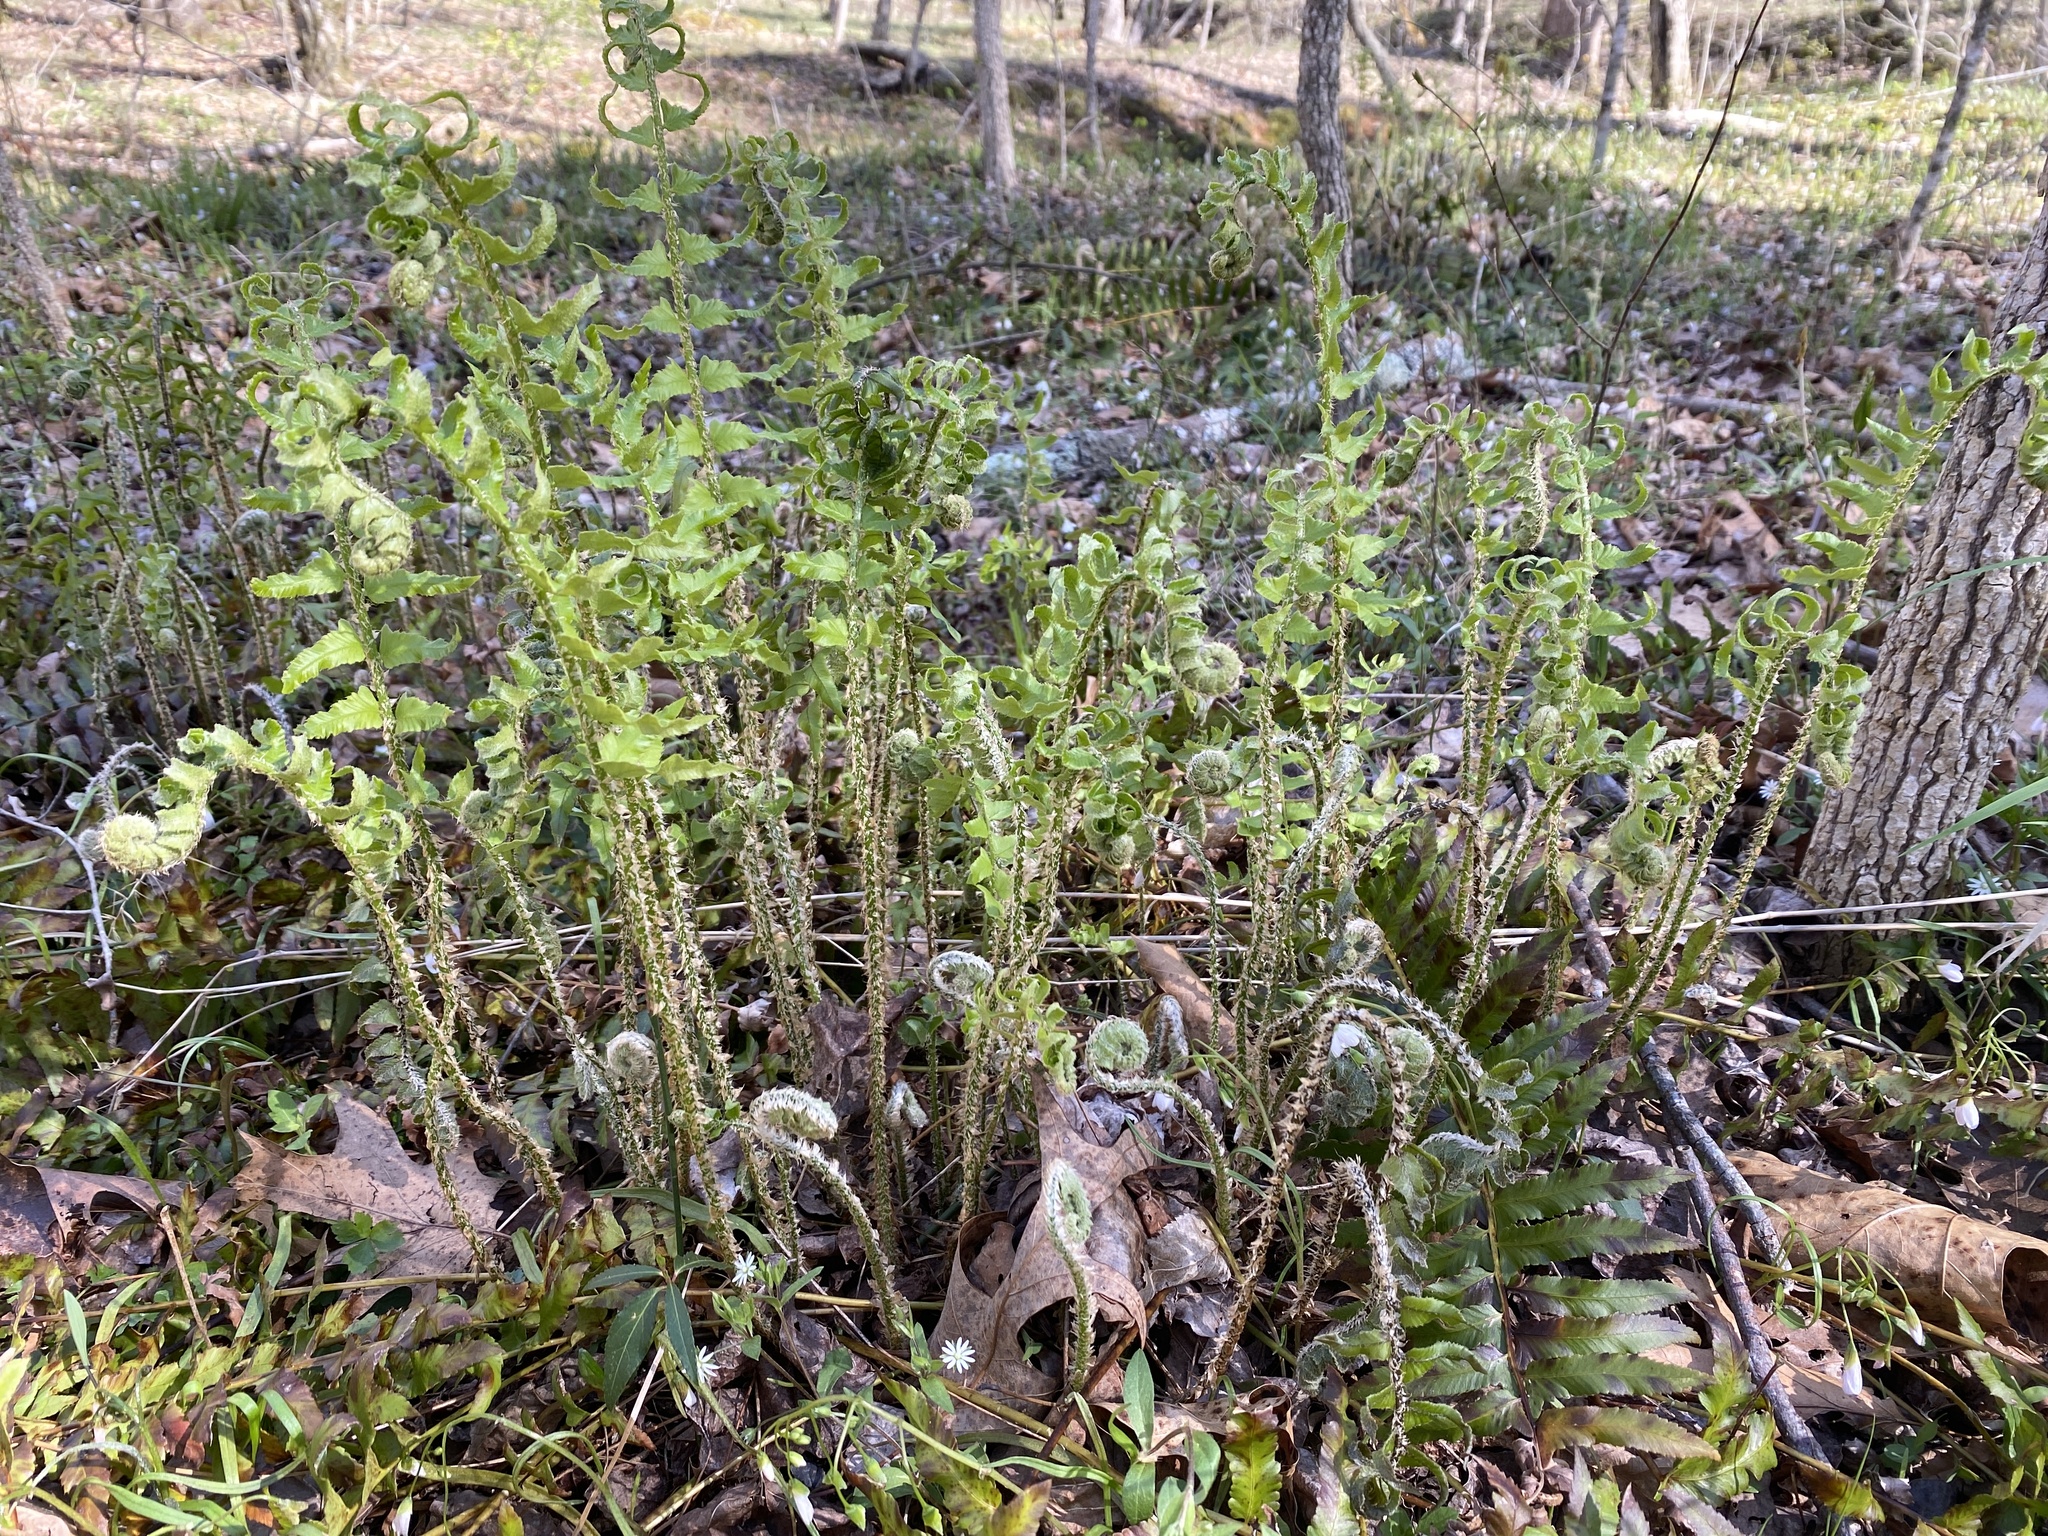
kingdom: Plantae
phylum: Tracheophyta
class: Polypodiopsida
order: Polypodiales
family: Dryopteridaceae
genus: Polystichum
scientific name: Polystichum acrostichoides
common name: Christmas fern
